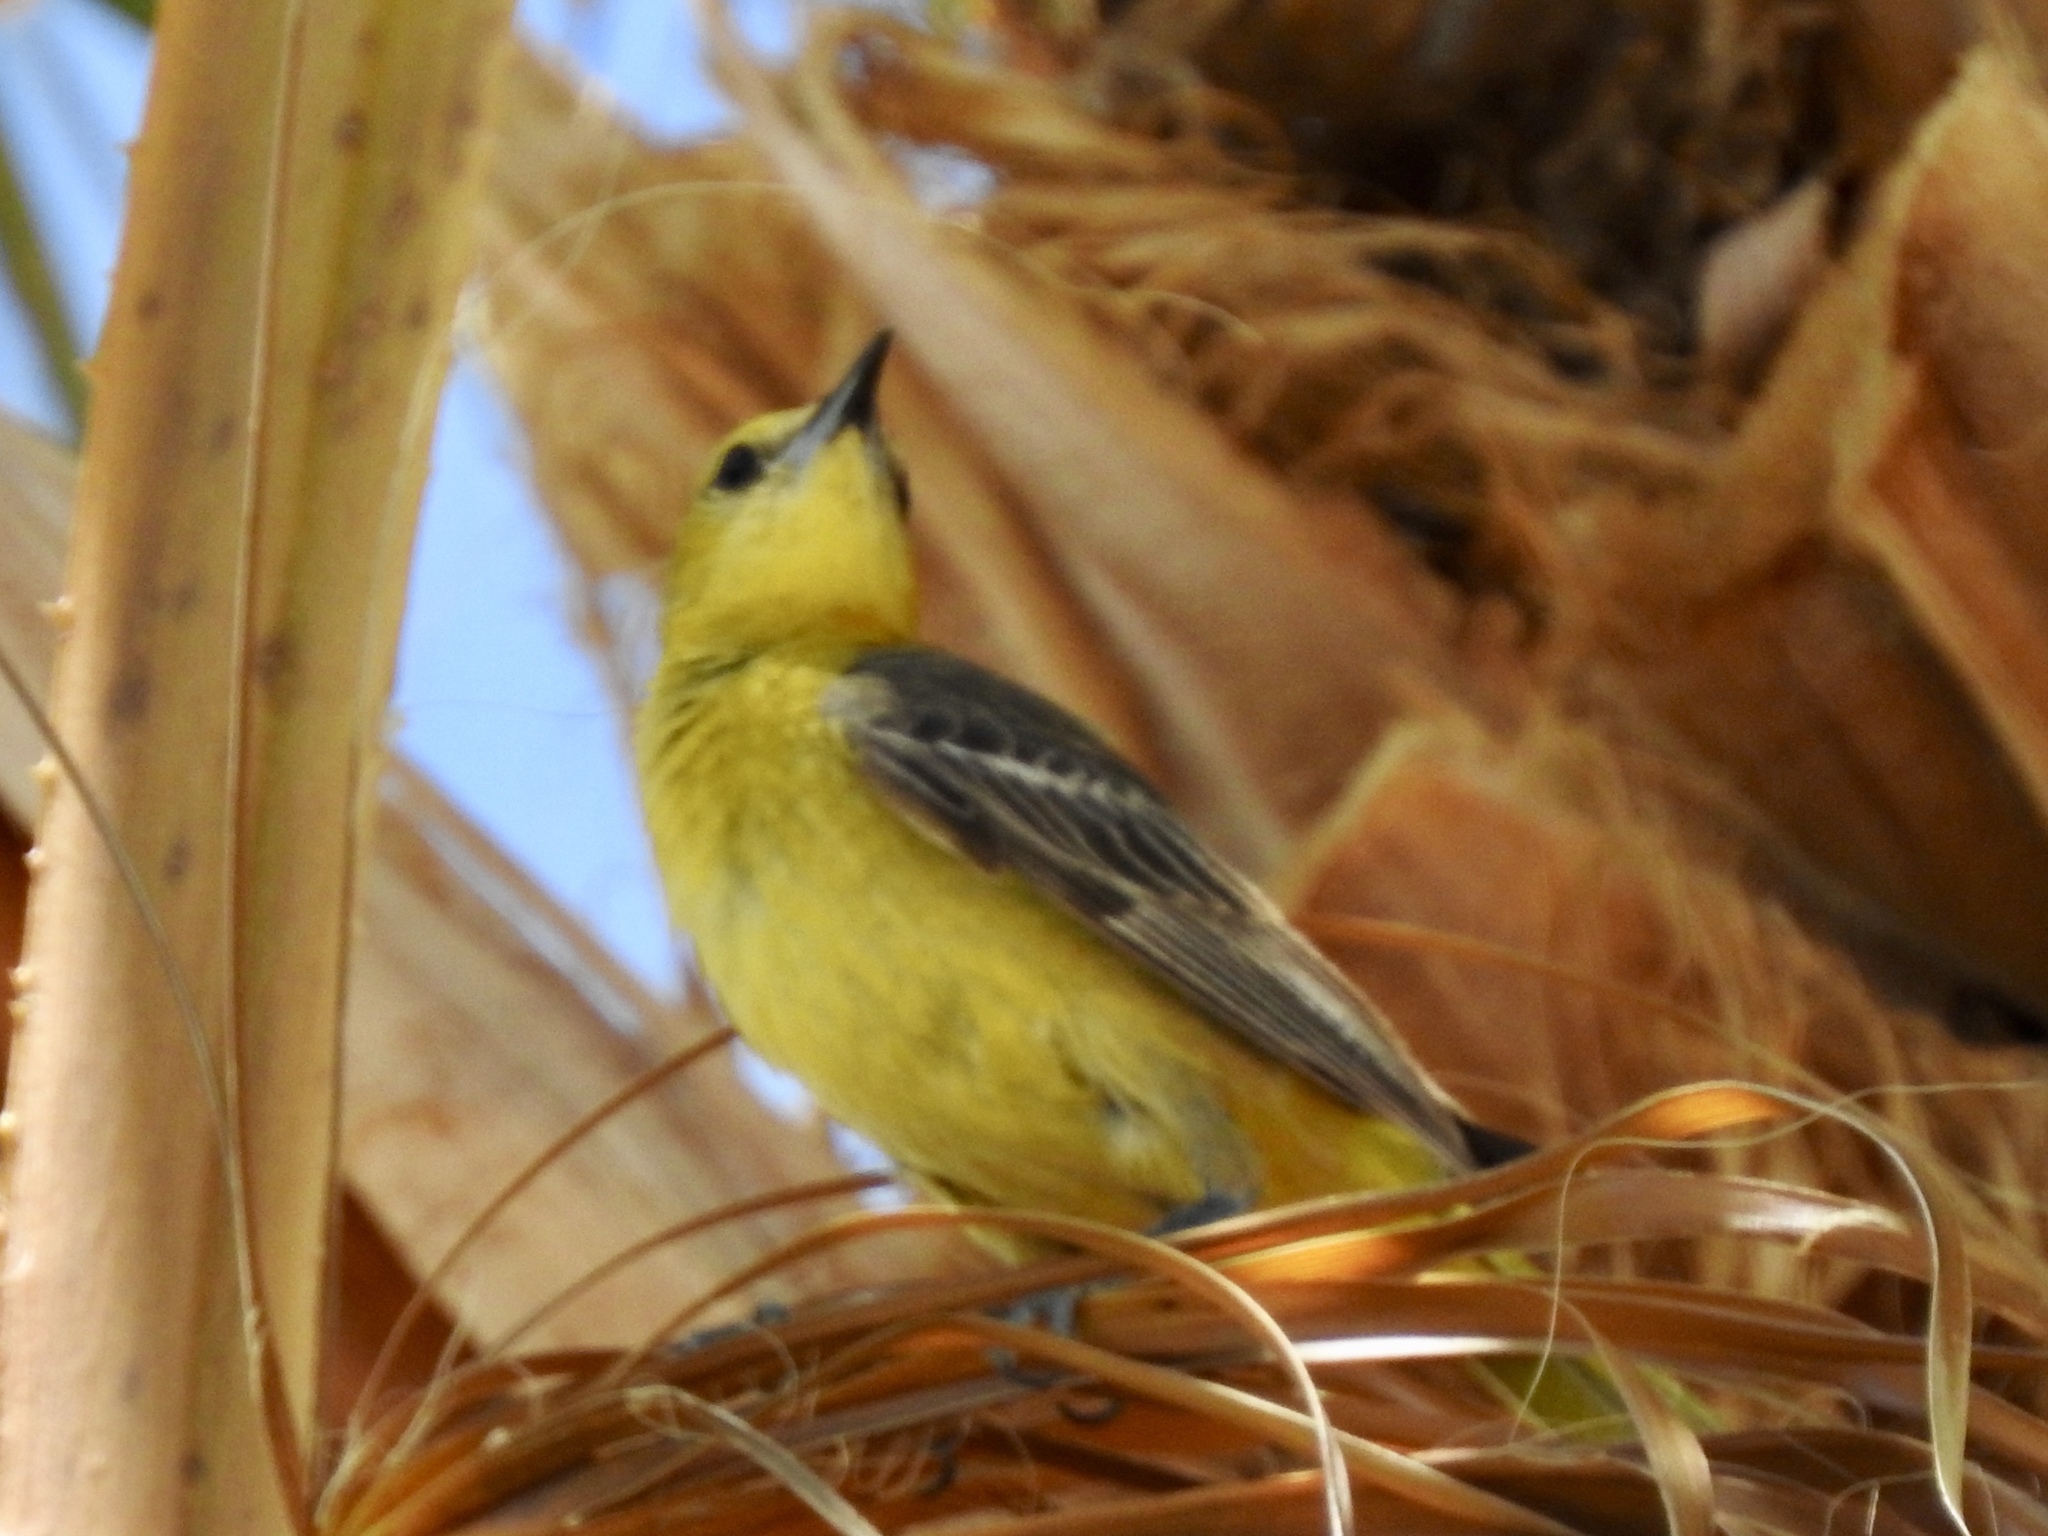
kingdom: Animalia
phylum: Chordata
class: Aves
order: Passeriformes
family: Icteridae
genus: Icterus
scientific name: Icterus cucullatus
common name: Hooded oriole
